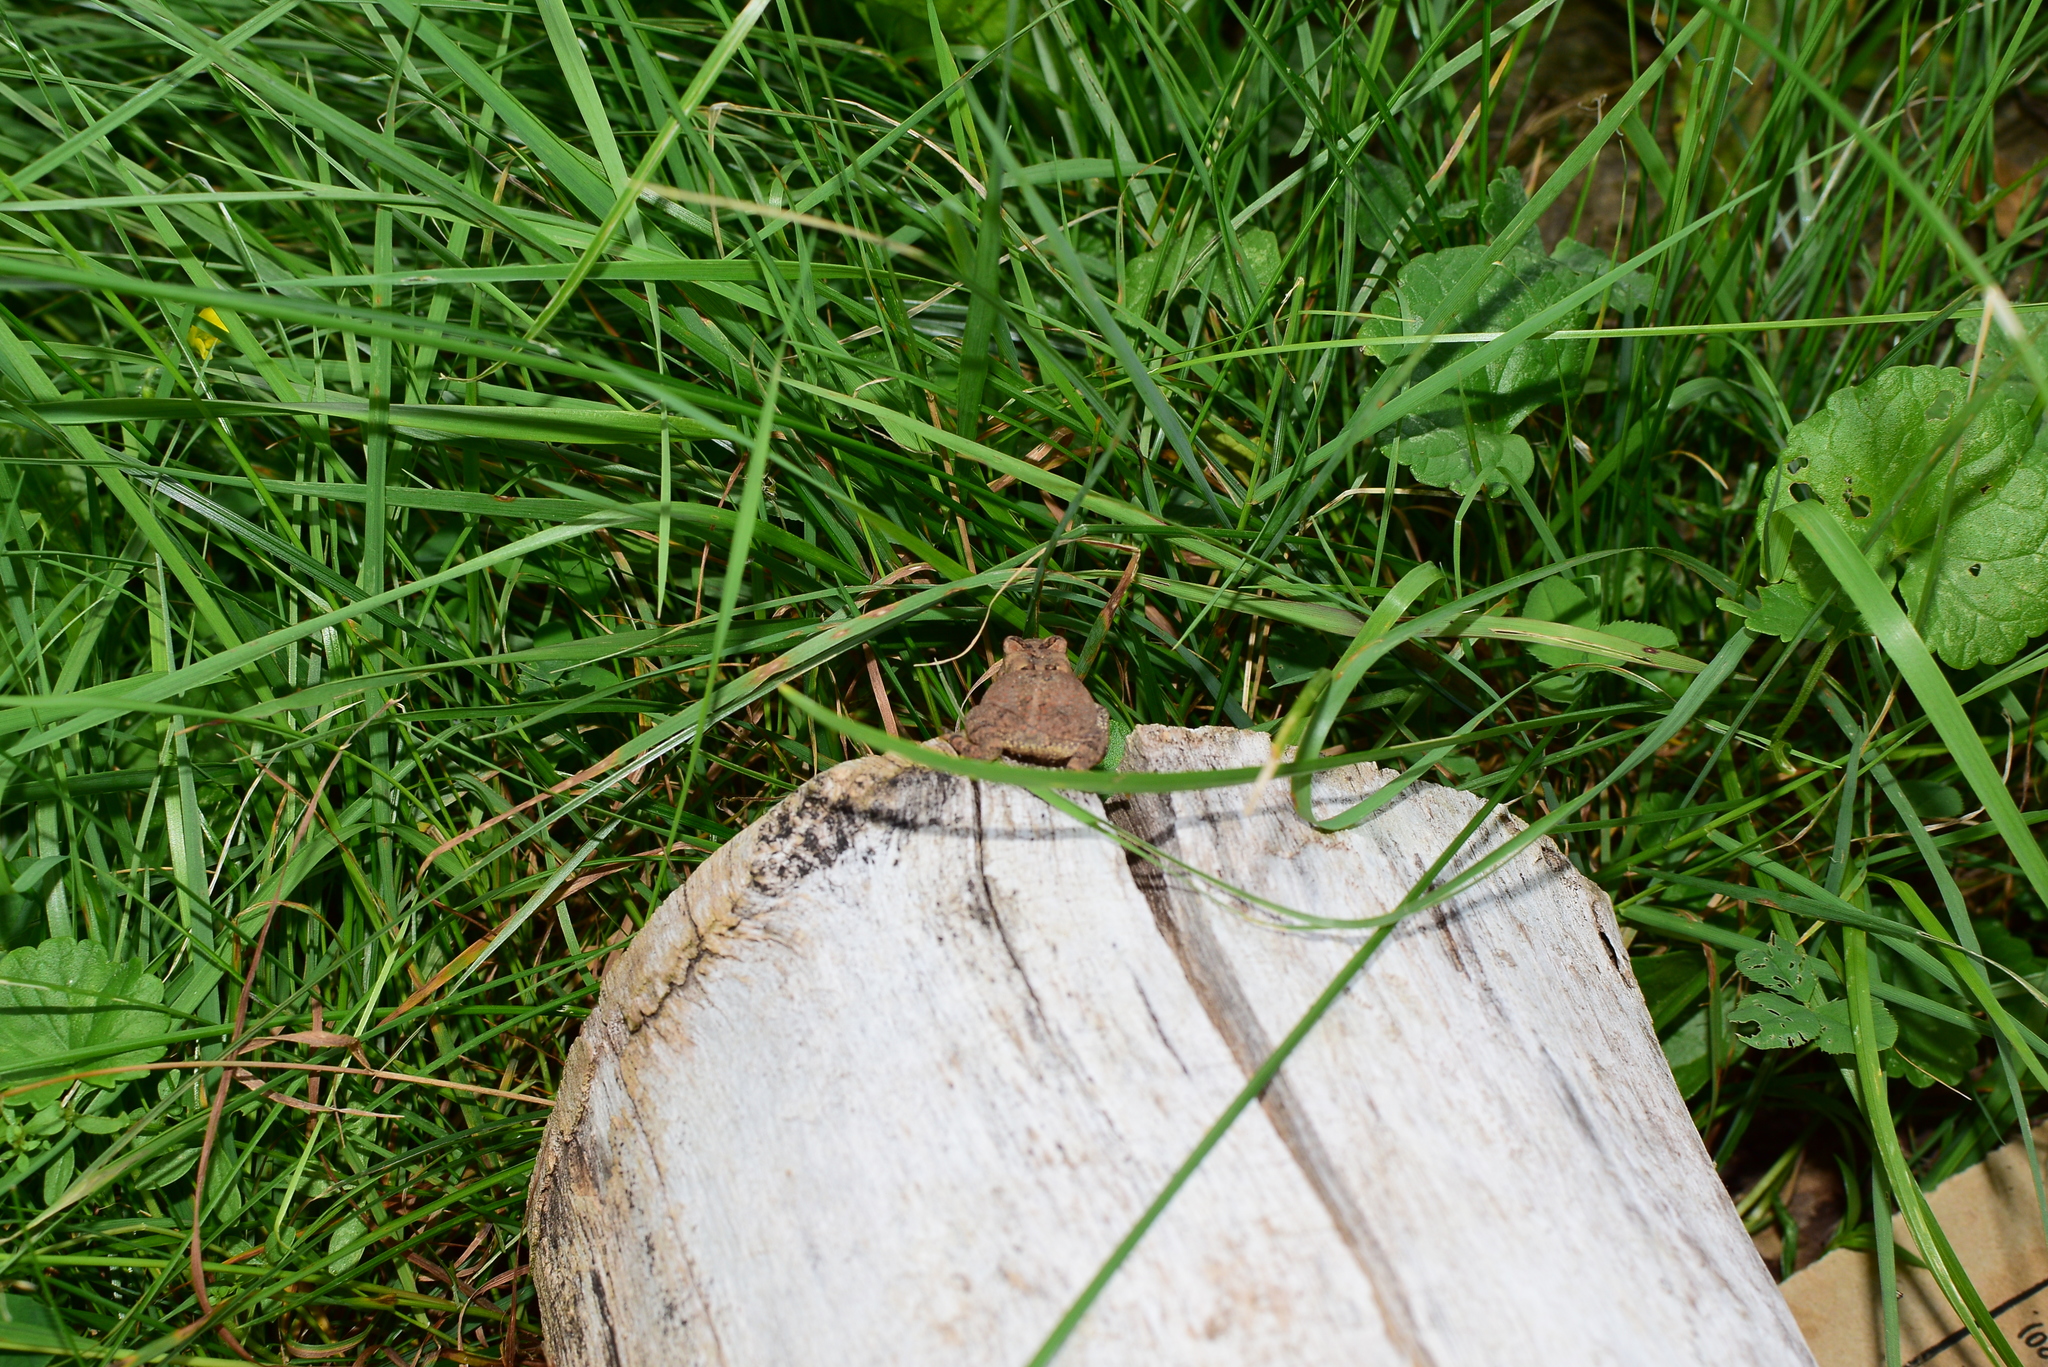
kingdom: Animalia
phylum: Chordata
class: Amphibia
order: Anura
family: Bufonidae
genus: Anaxyrus
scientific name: Anaxyrus americanus
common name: American toad
